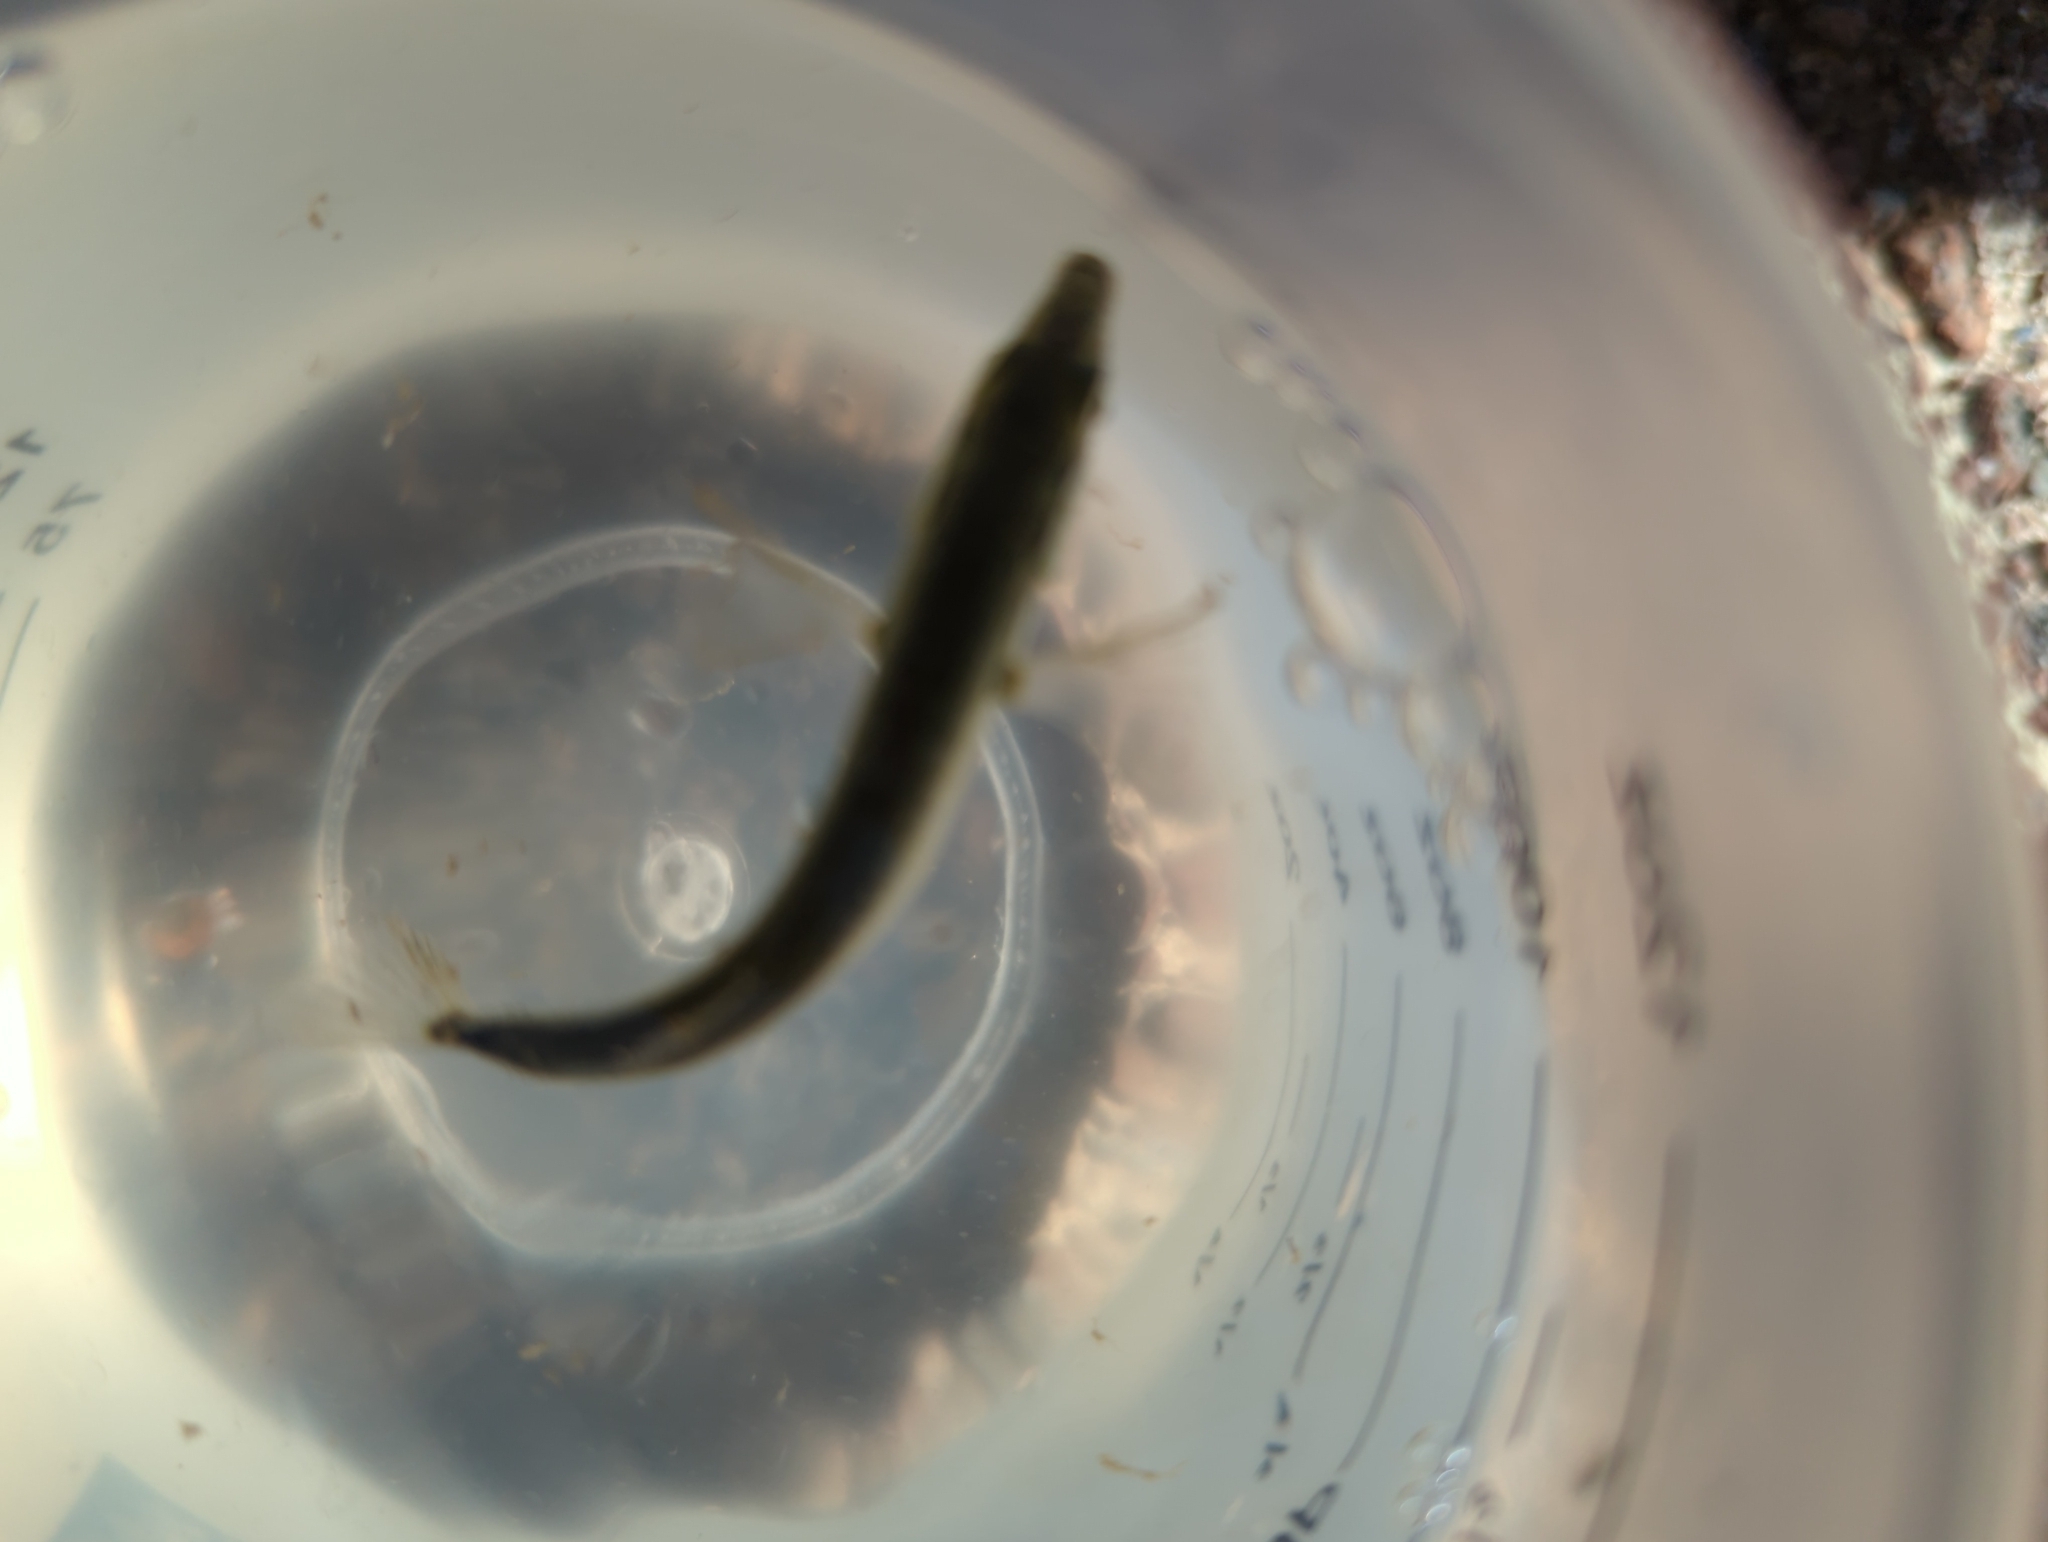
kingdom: Animalia
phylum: Chordata
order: Gasterosteiformes
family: Gasterosteidae
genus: Gasterosteus
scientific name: Gasterosteus aculeatus
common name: Three-spined stickleback
